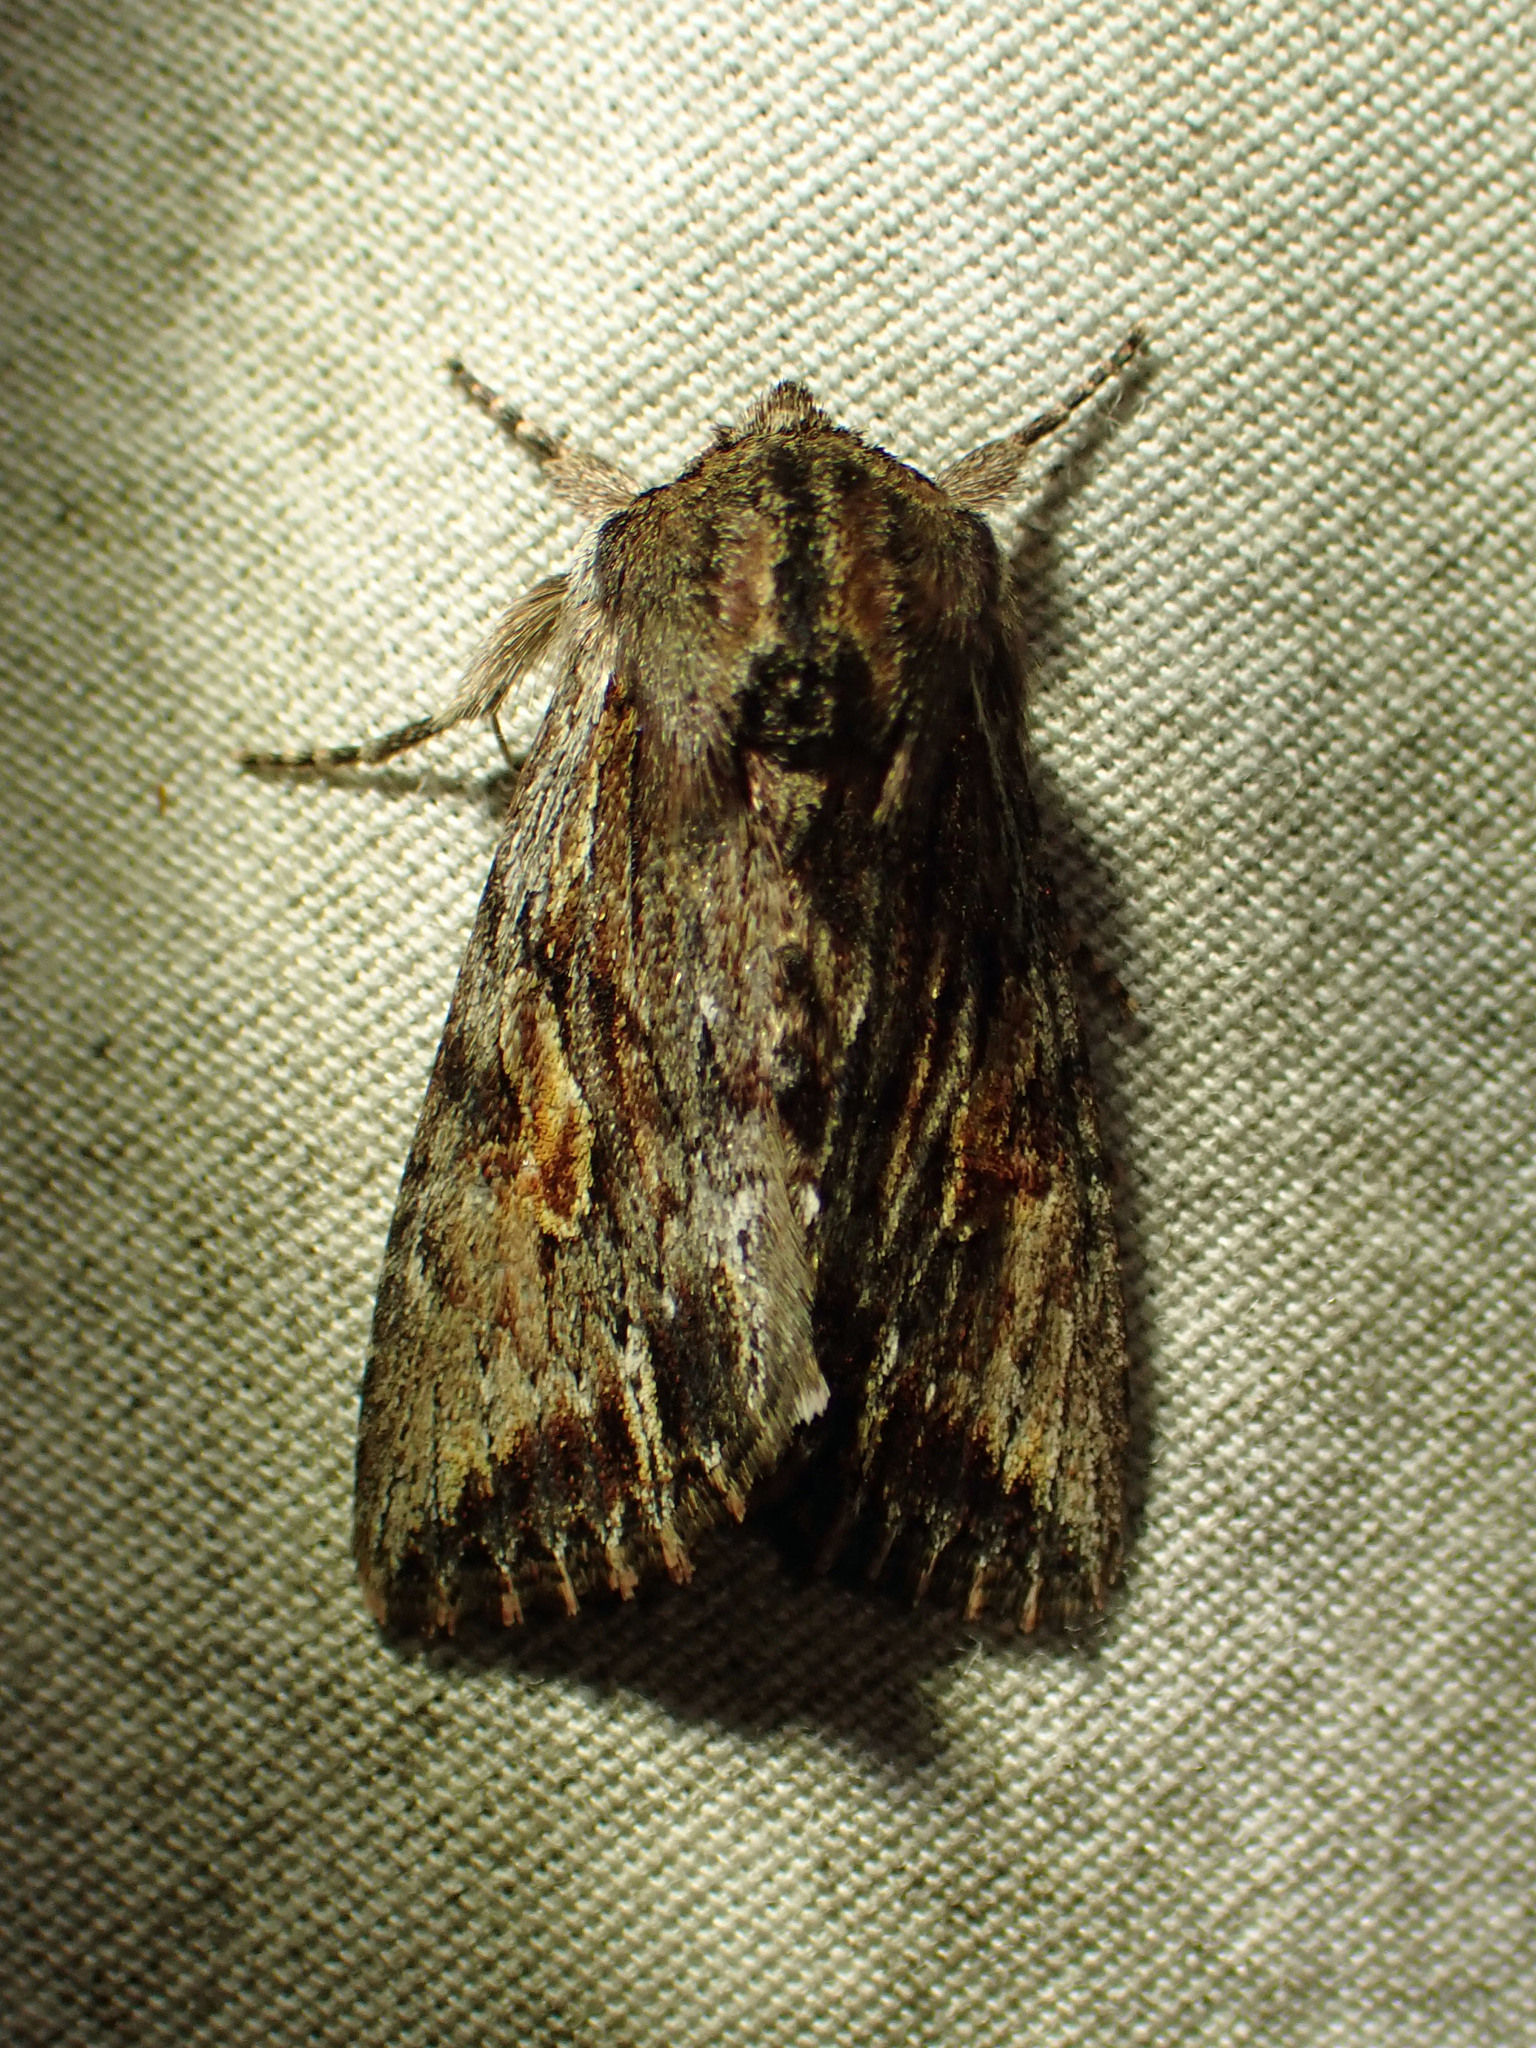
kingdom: Animalia
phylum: Arthropoda
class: Insecta
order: Lepidoptera
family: Noctuidae
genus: Achatia
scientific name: Achatia evicta
